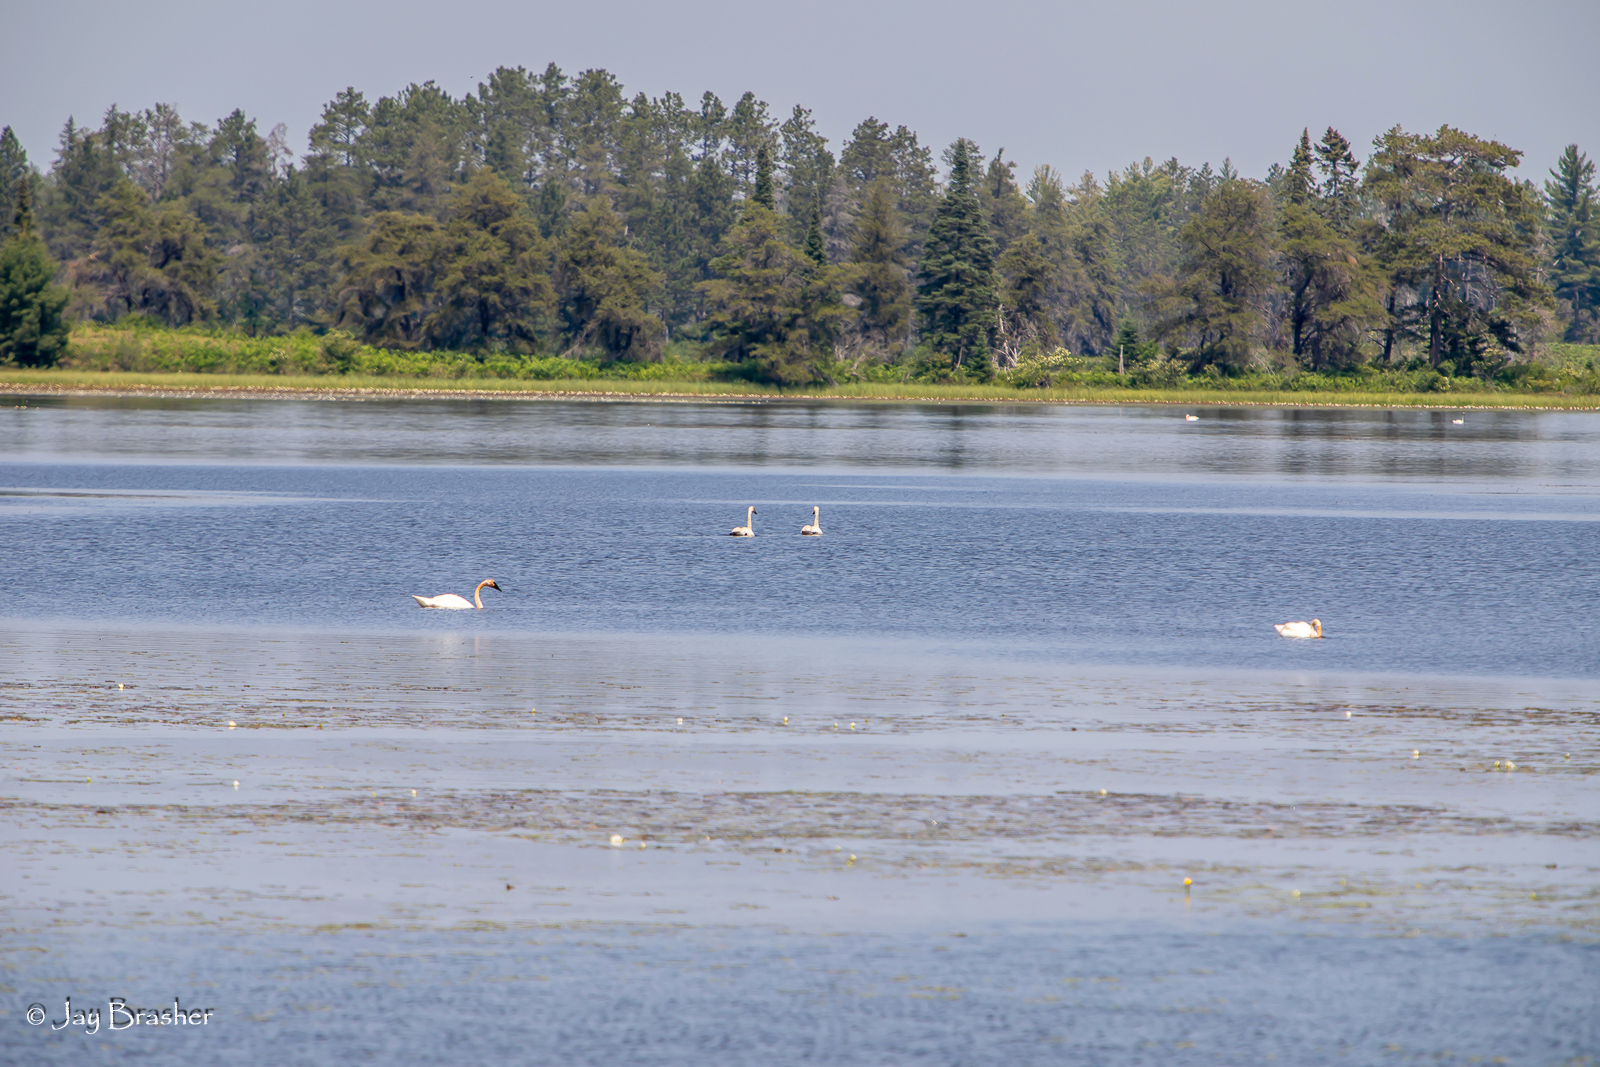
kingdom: Animalia
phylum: Chordata
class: Aves
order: Anseriformes
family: Anatidae
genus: Cygnus
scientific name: Cygnus buccinator
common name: Trumpeter swan
